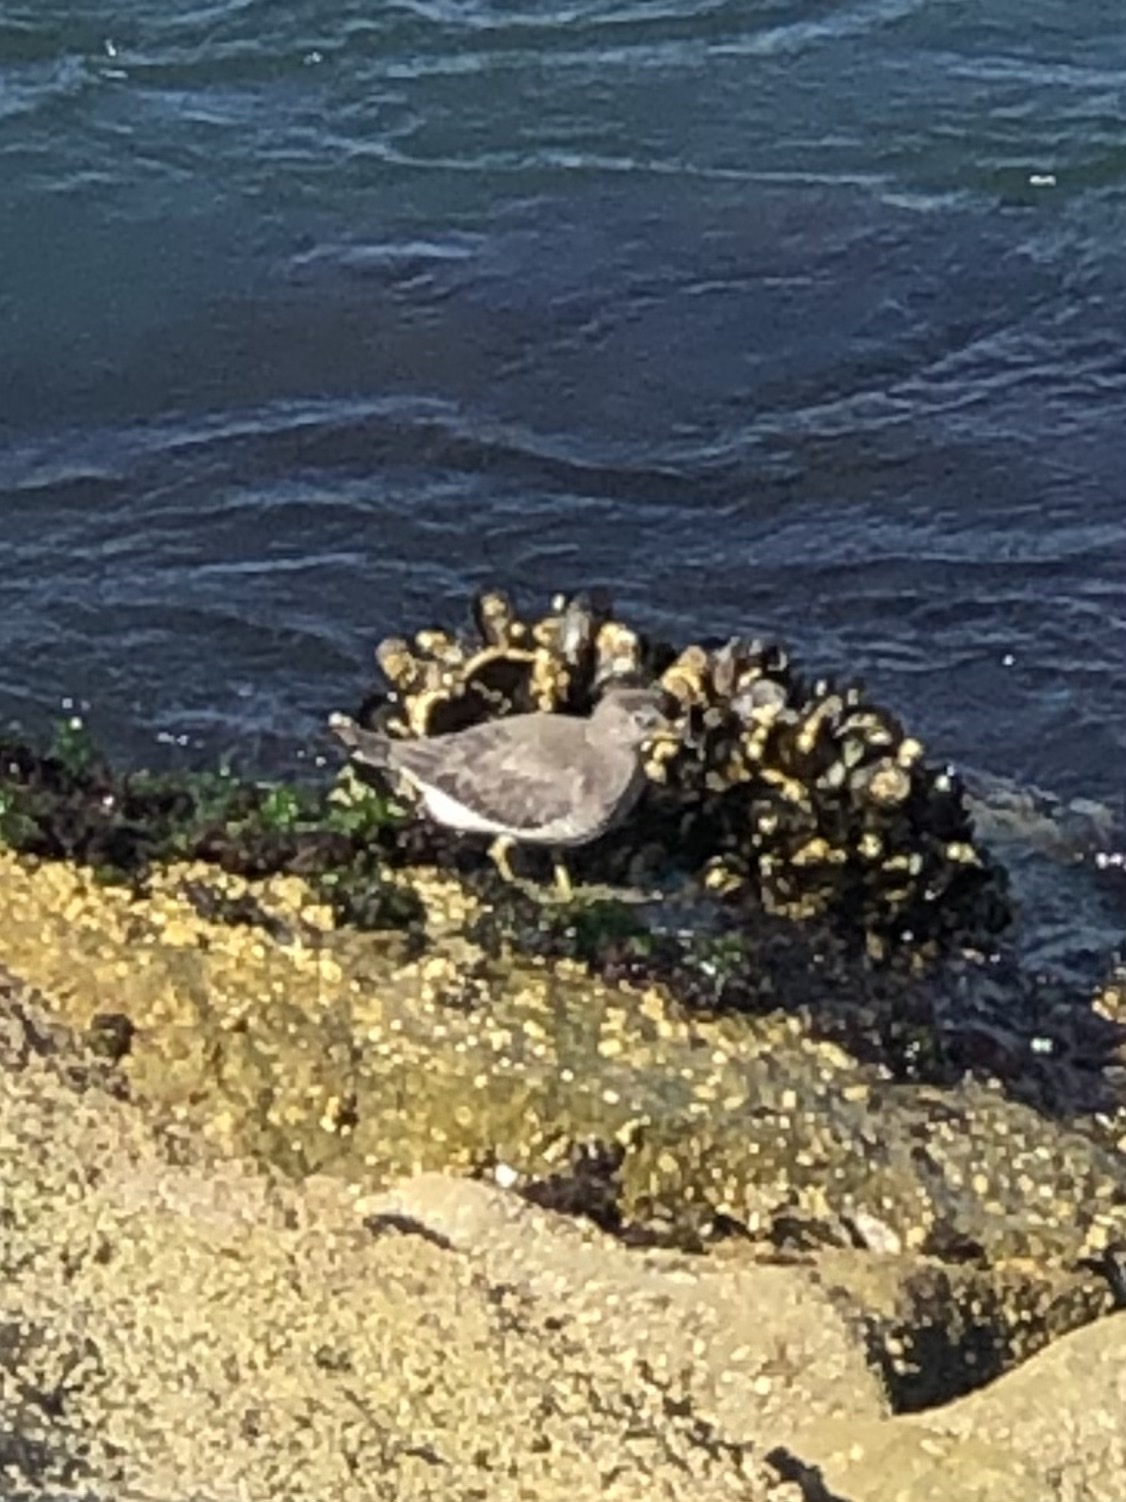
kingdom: Animalia
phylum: Chordata
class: Aves
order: Charadriiformes
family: Scolopacidae
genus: Calidris
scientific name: Calidris virgata
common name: Surfbird
